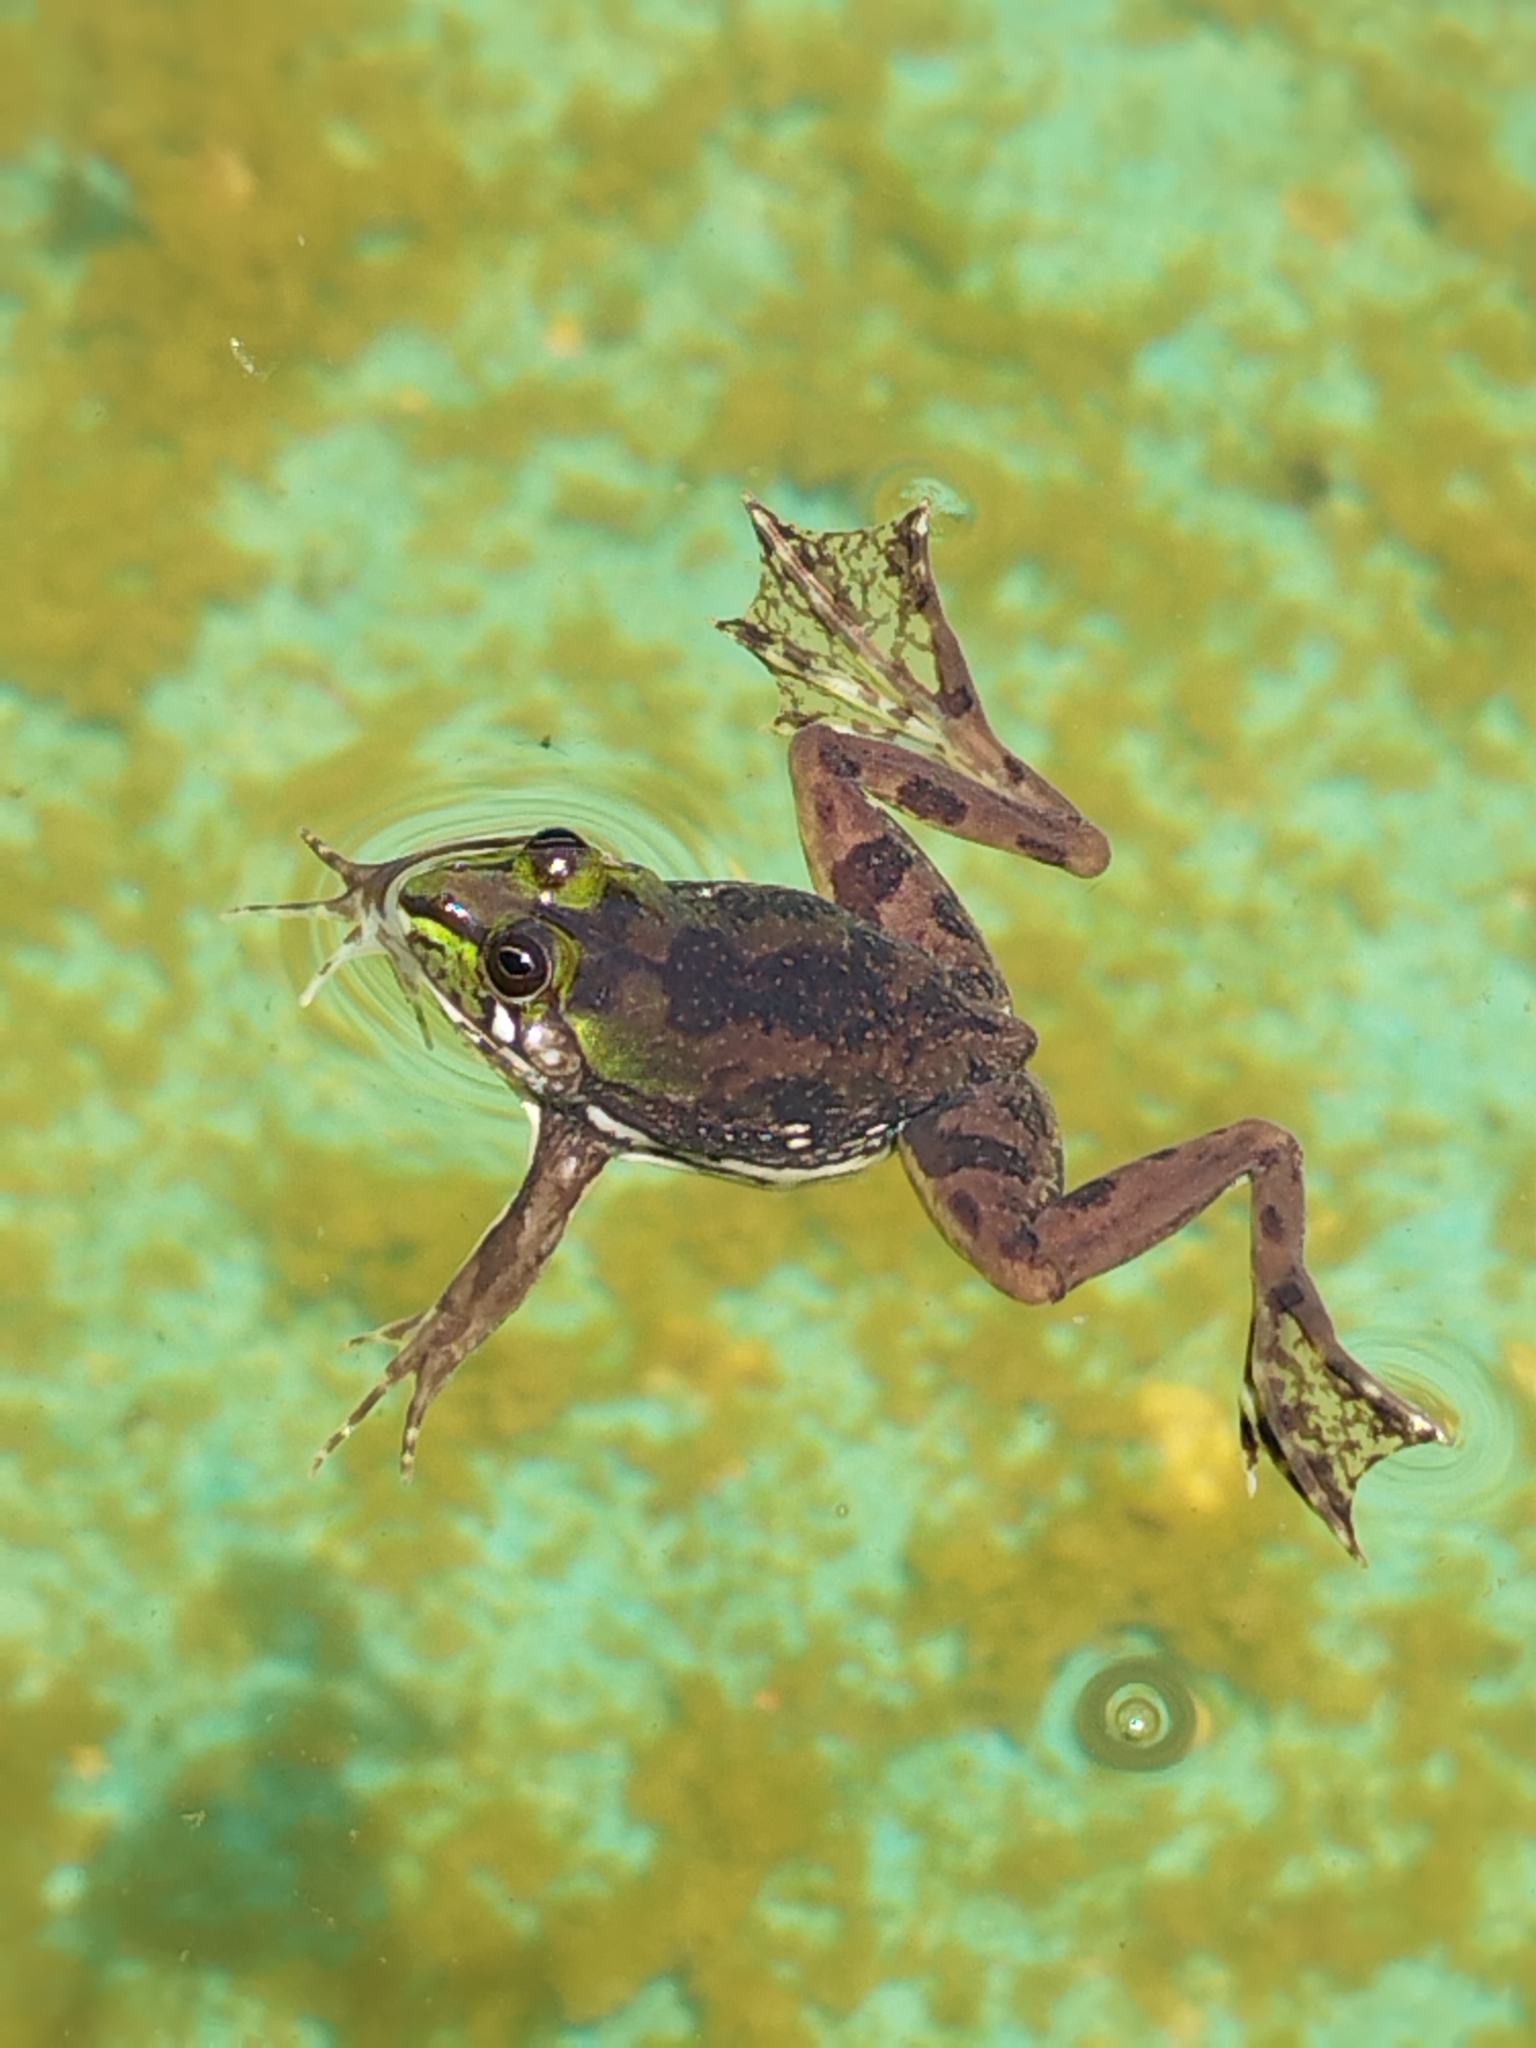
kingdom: Animalia
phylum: Chordata
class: Amphibia
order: Anura
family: Hylidae
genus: Pseudis
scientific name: Pseudis minuta
